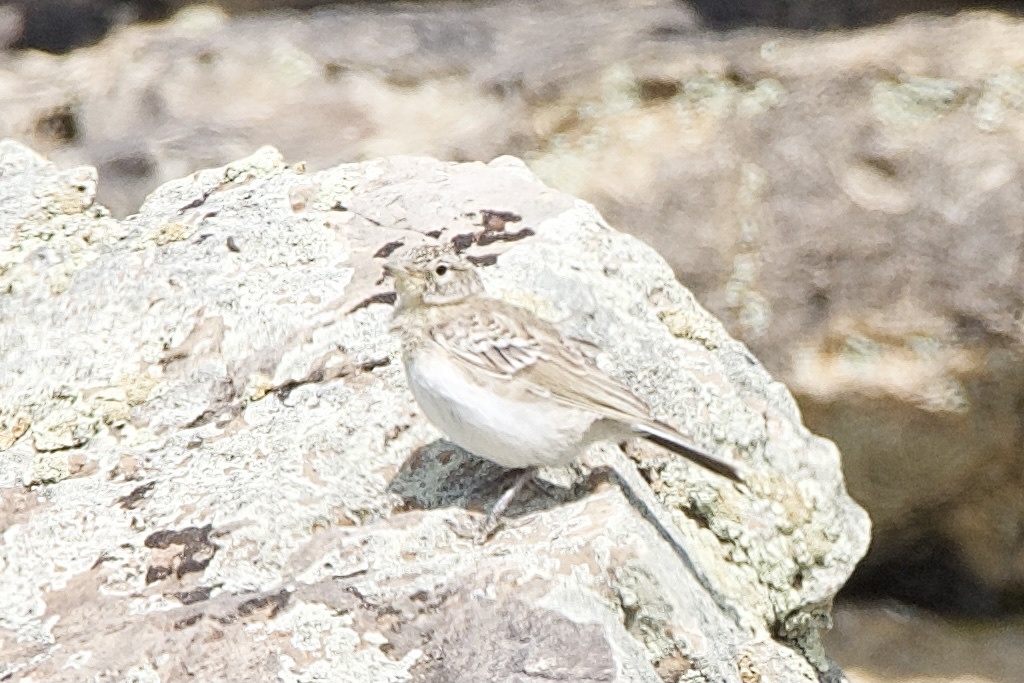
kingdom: Animalia
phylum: Chordata
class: Aves
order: Passeriformes
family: Alaudidae
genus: Eremophila
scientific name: Eremophila alpestris
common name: Horned lark
